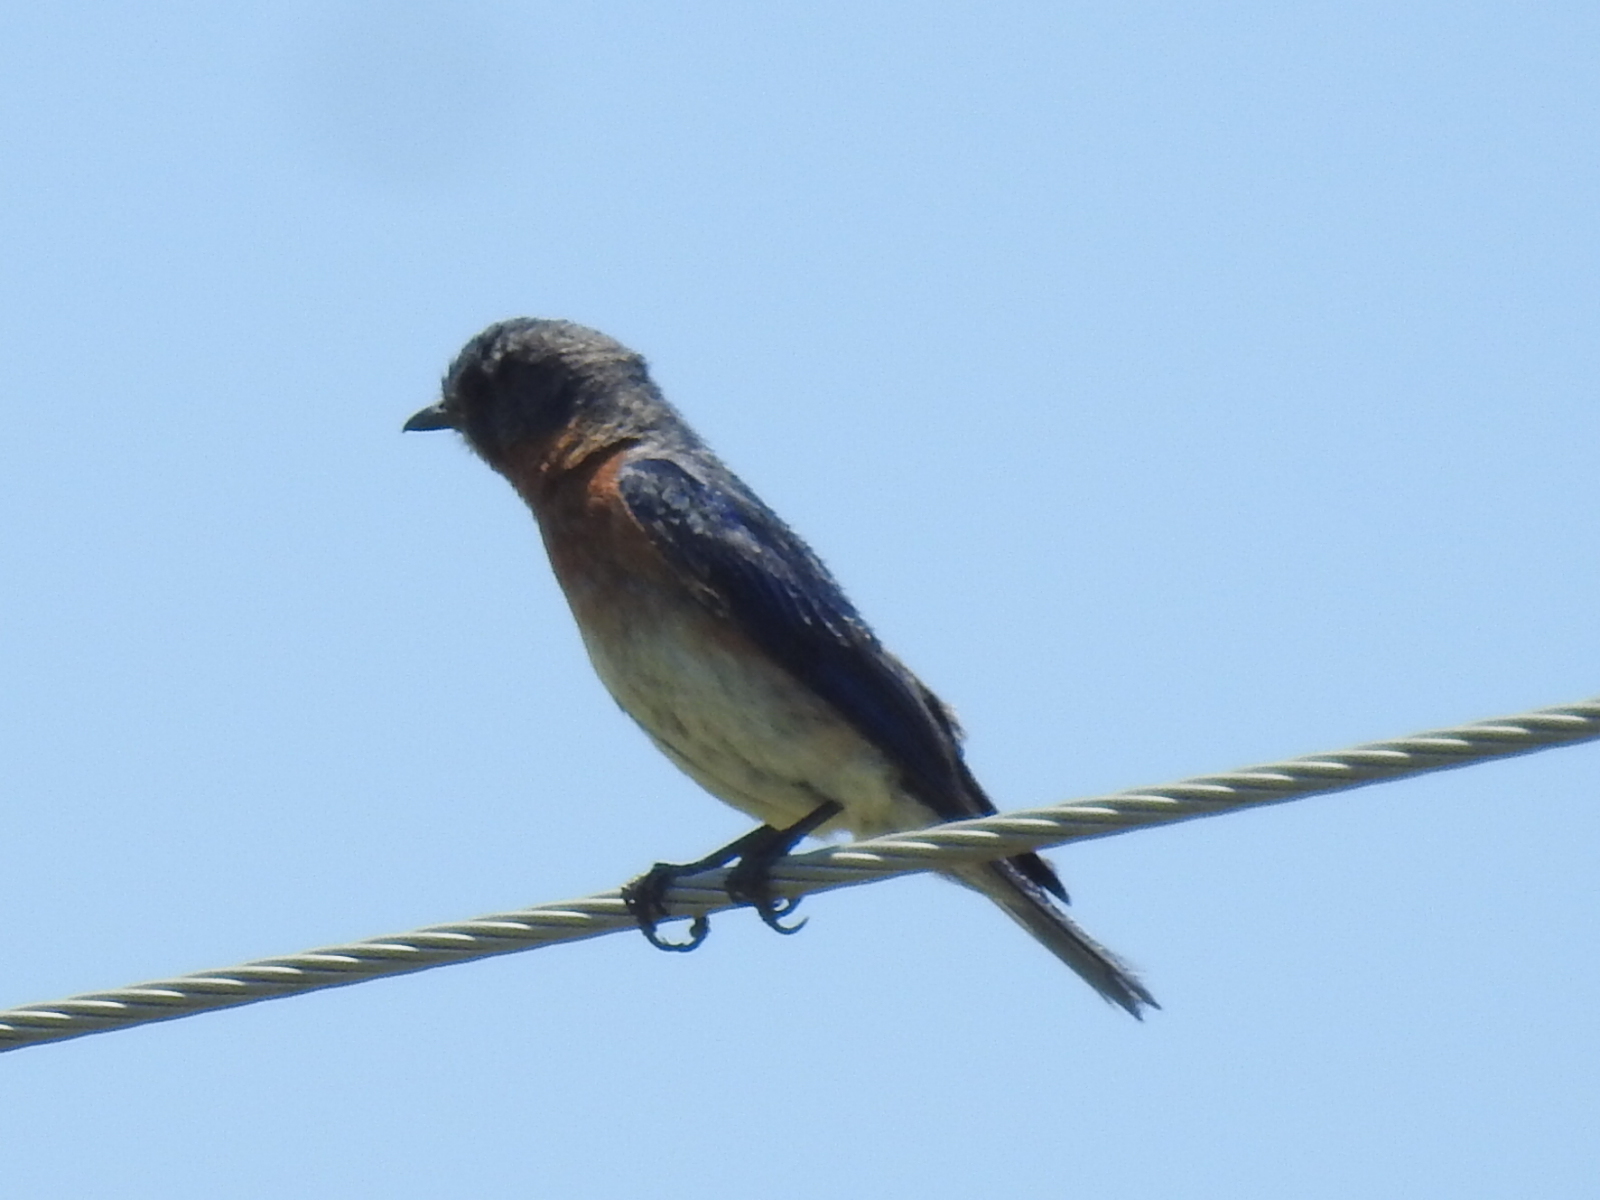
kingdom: Animalia
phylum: Chordata
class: Aves
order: Passeriformes
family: Turdidae
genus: Sialia
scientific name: Sialia sialis
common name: Eastern bluebird
